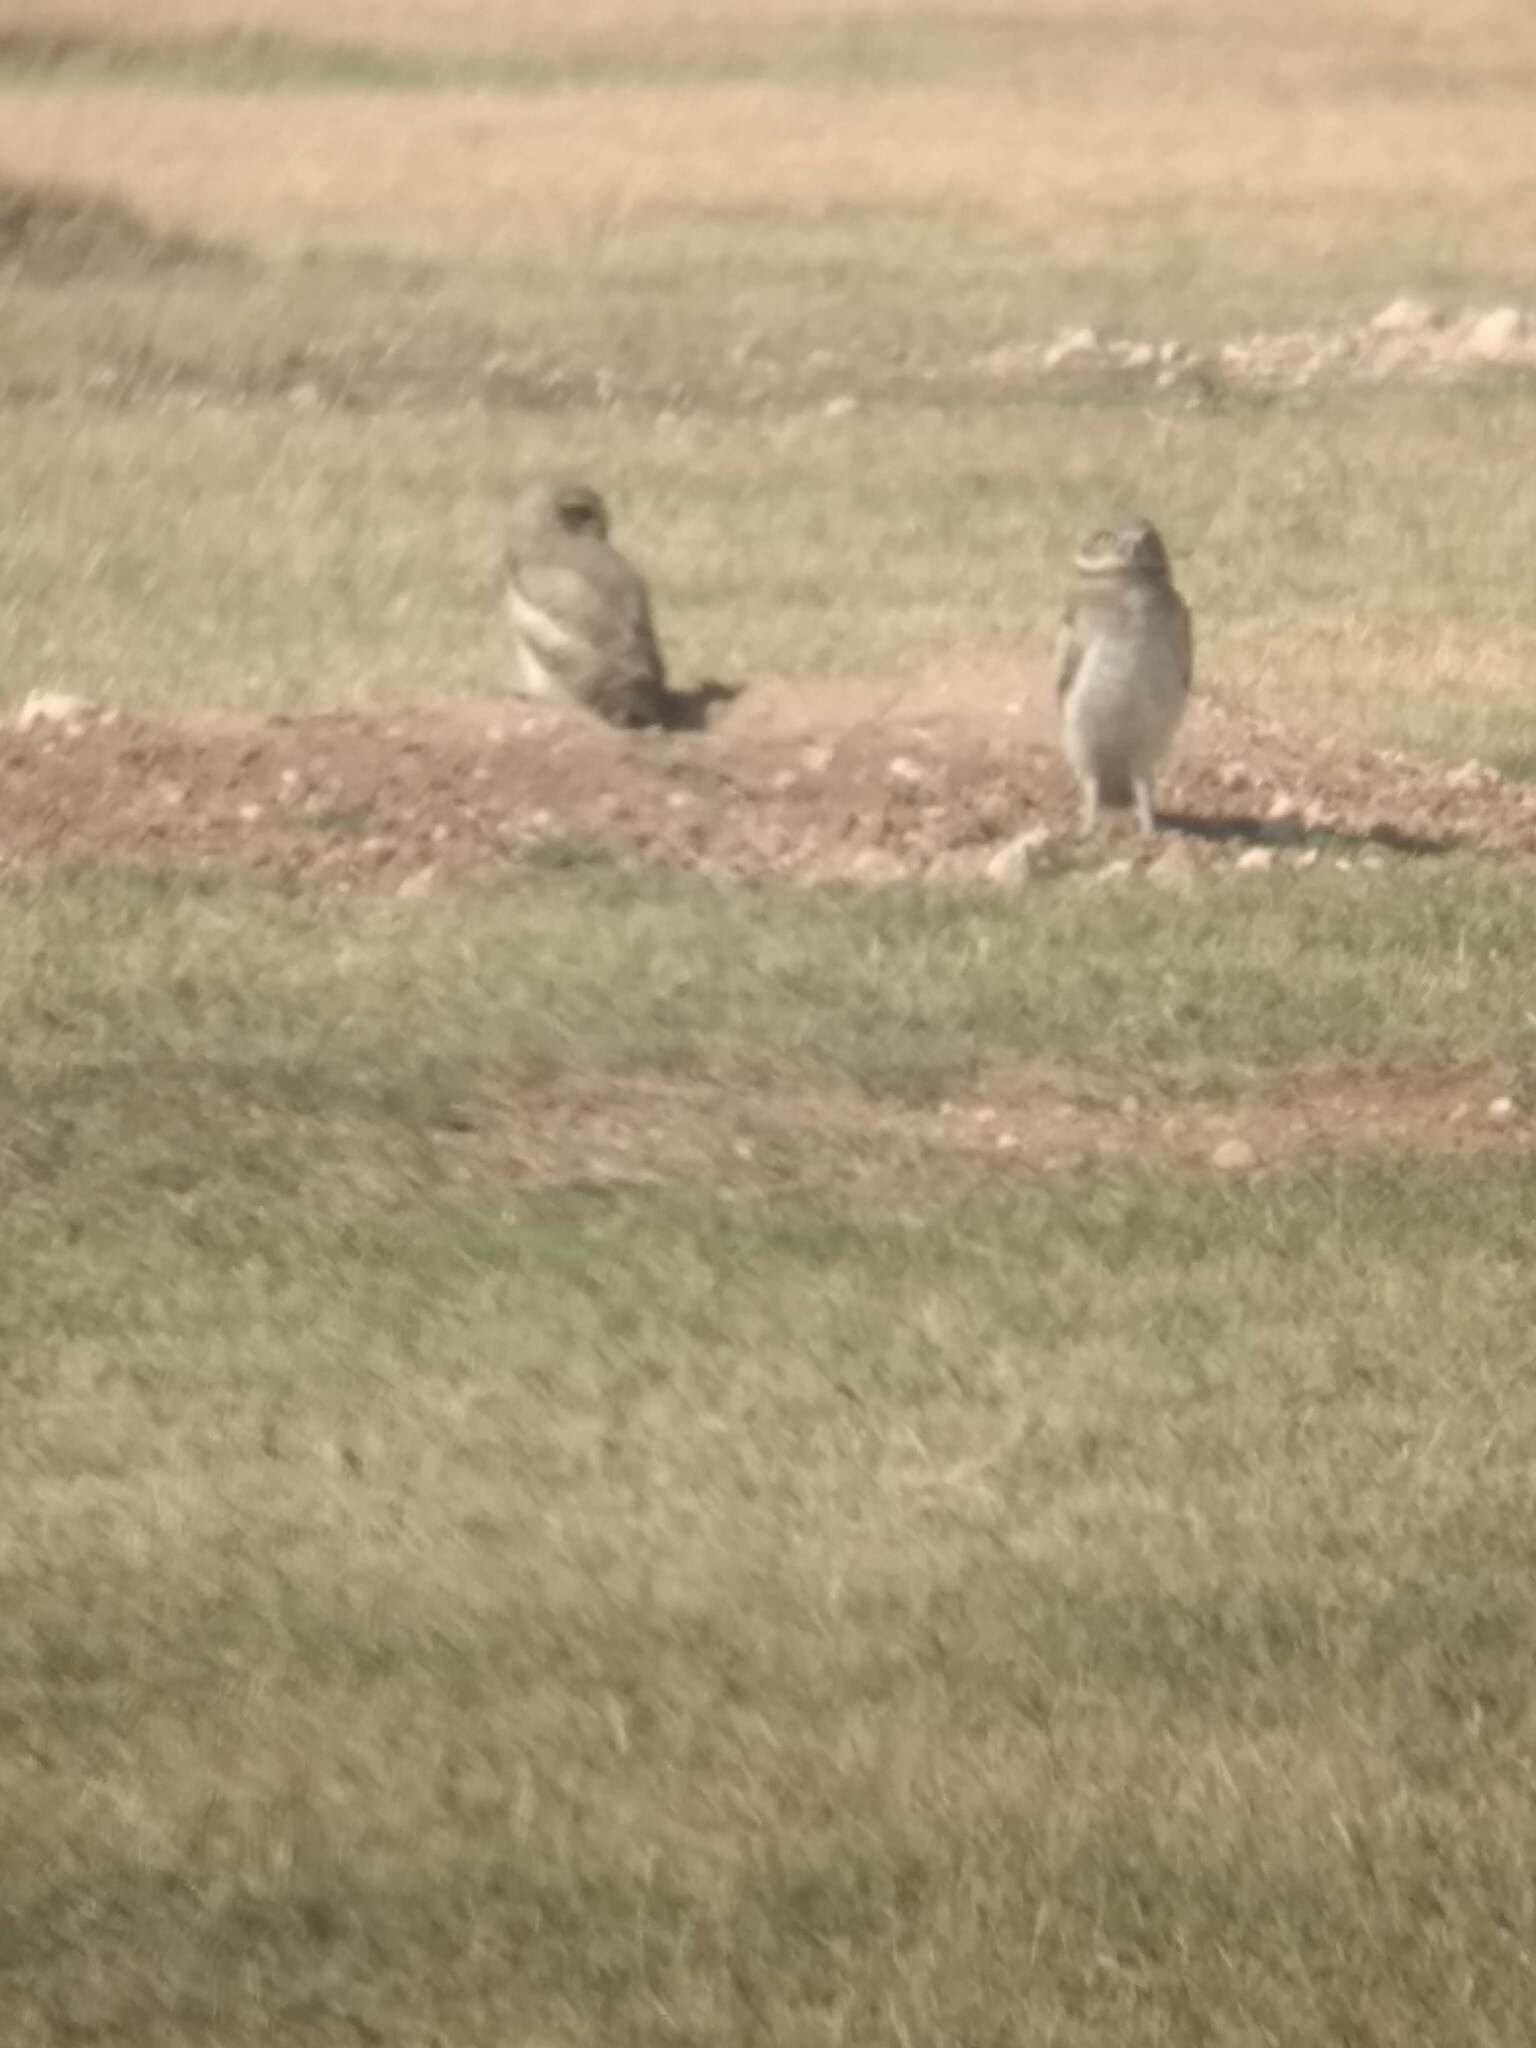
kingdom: Animalia
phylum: Chordata
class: Aves
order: Strigiformes
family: Strigidae
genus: Athene
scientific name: Athene cunicularia
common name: Burrowing owl
